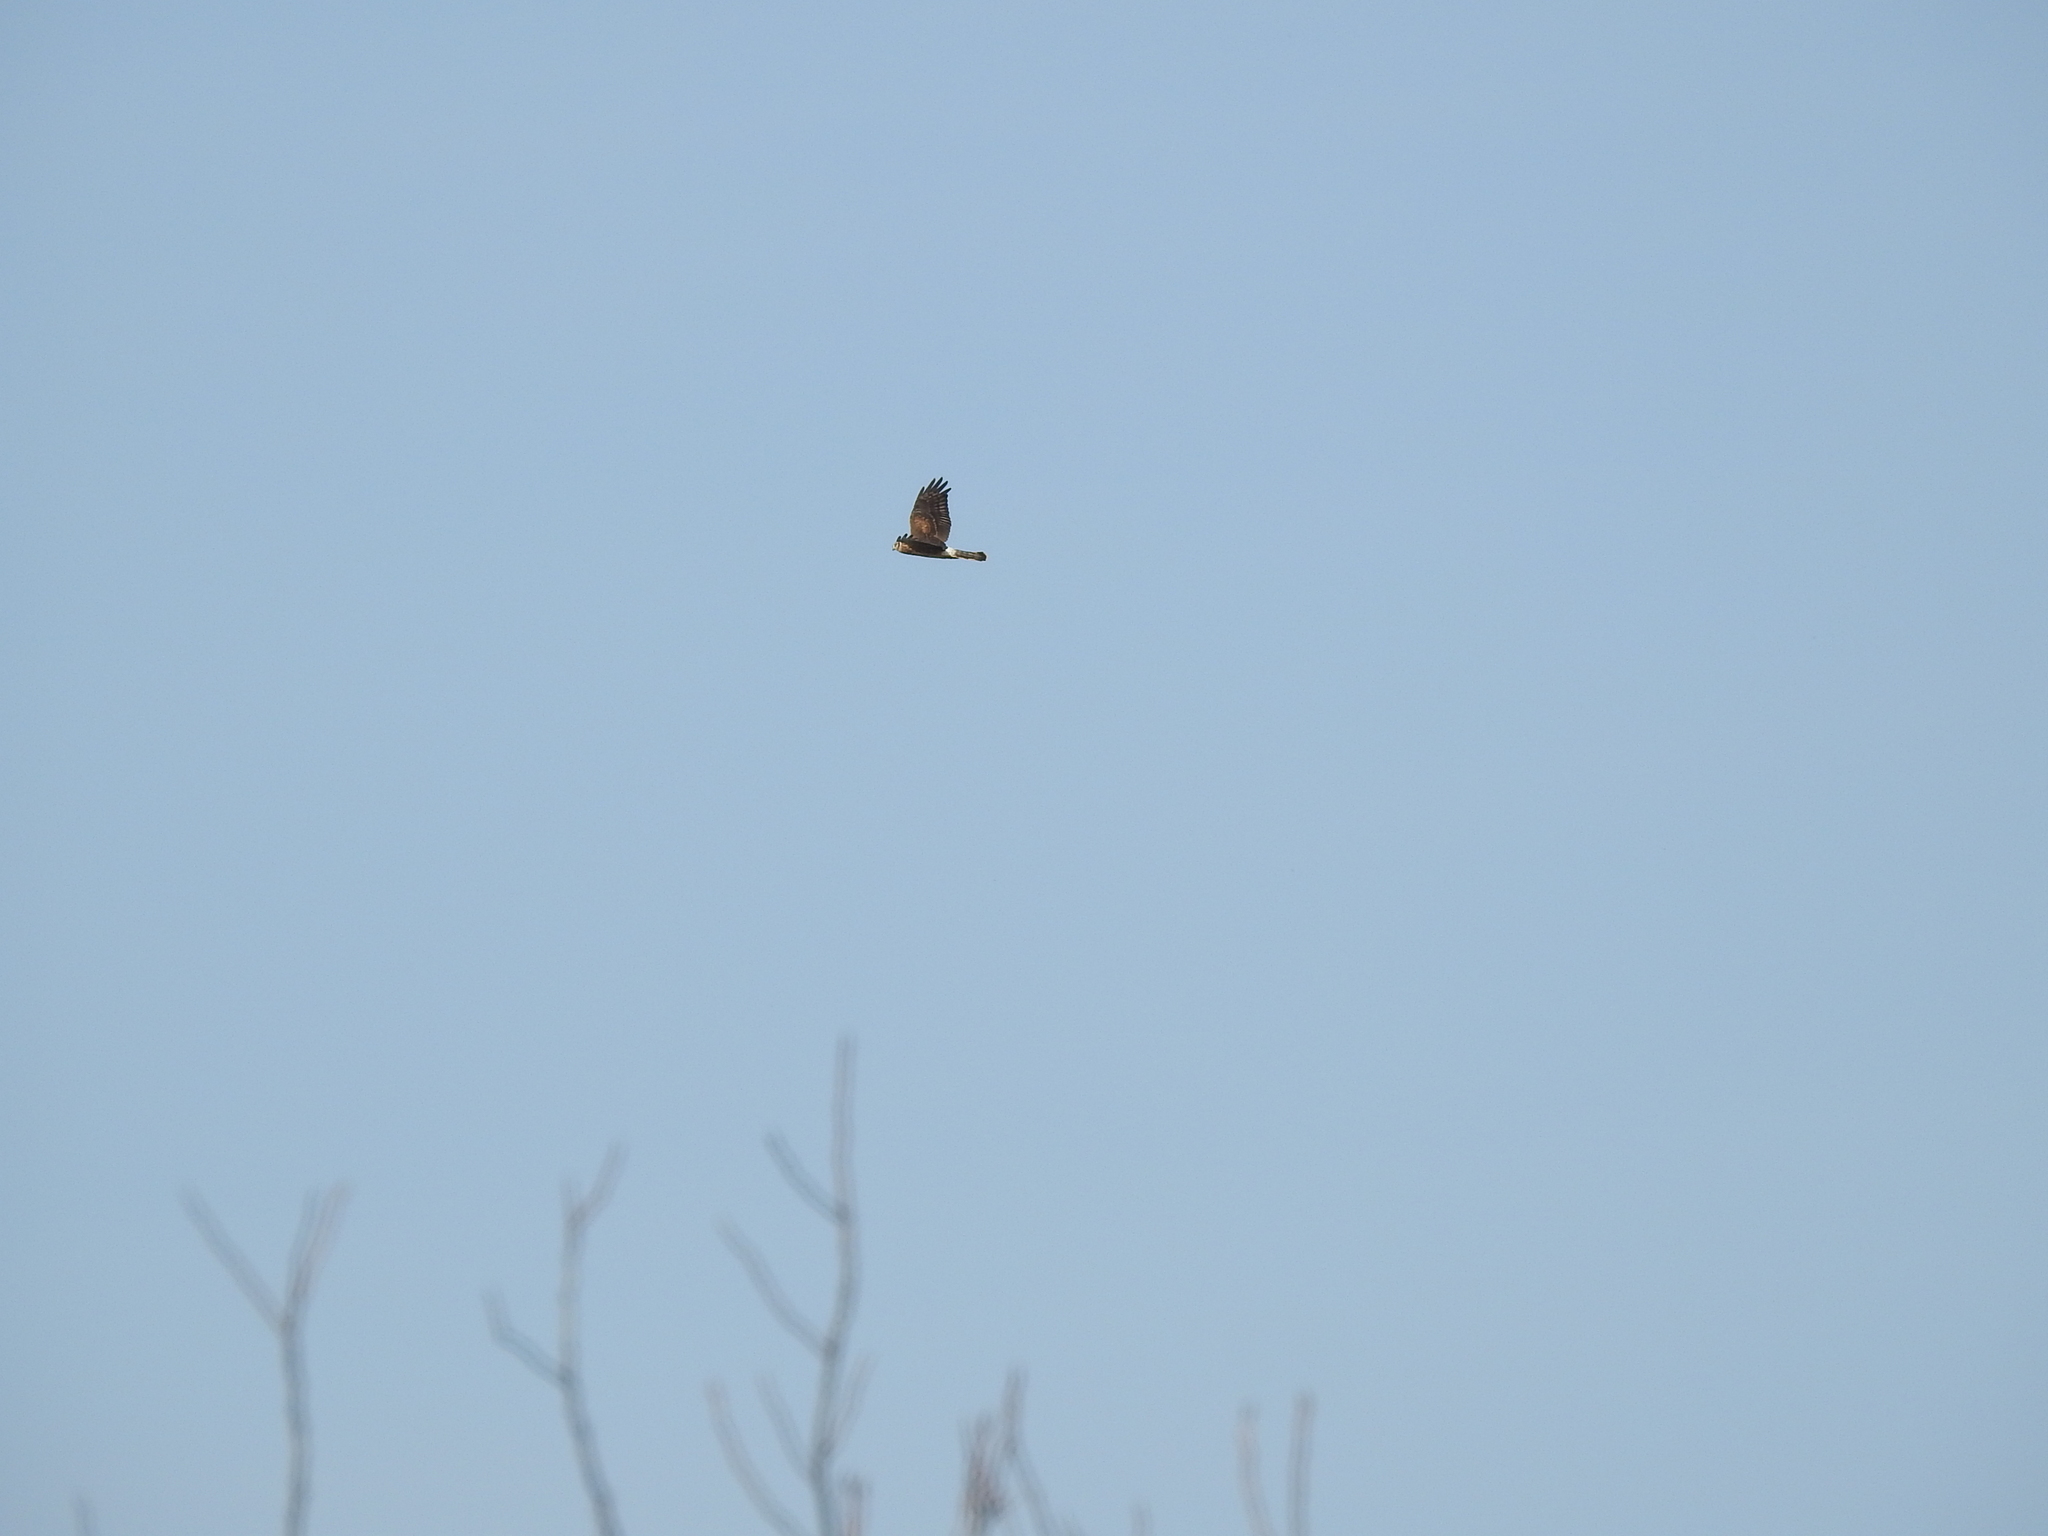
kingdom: Animalia
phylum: Chordata
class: Aves
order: Accipitriformes
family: Accipitridae
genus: Circus
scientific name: Circus cyaneus
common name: Hen harrier
